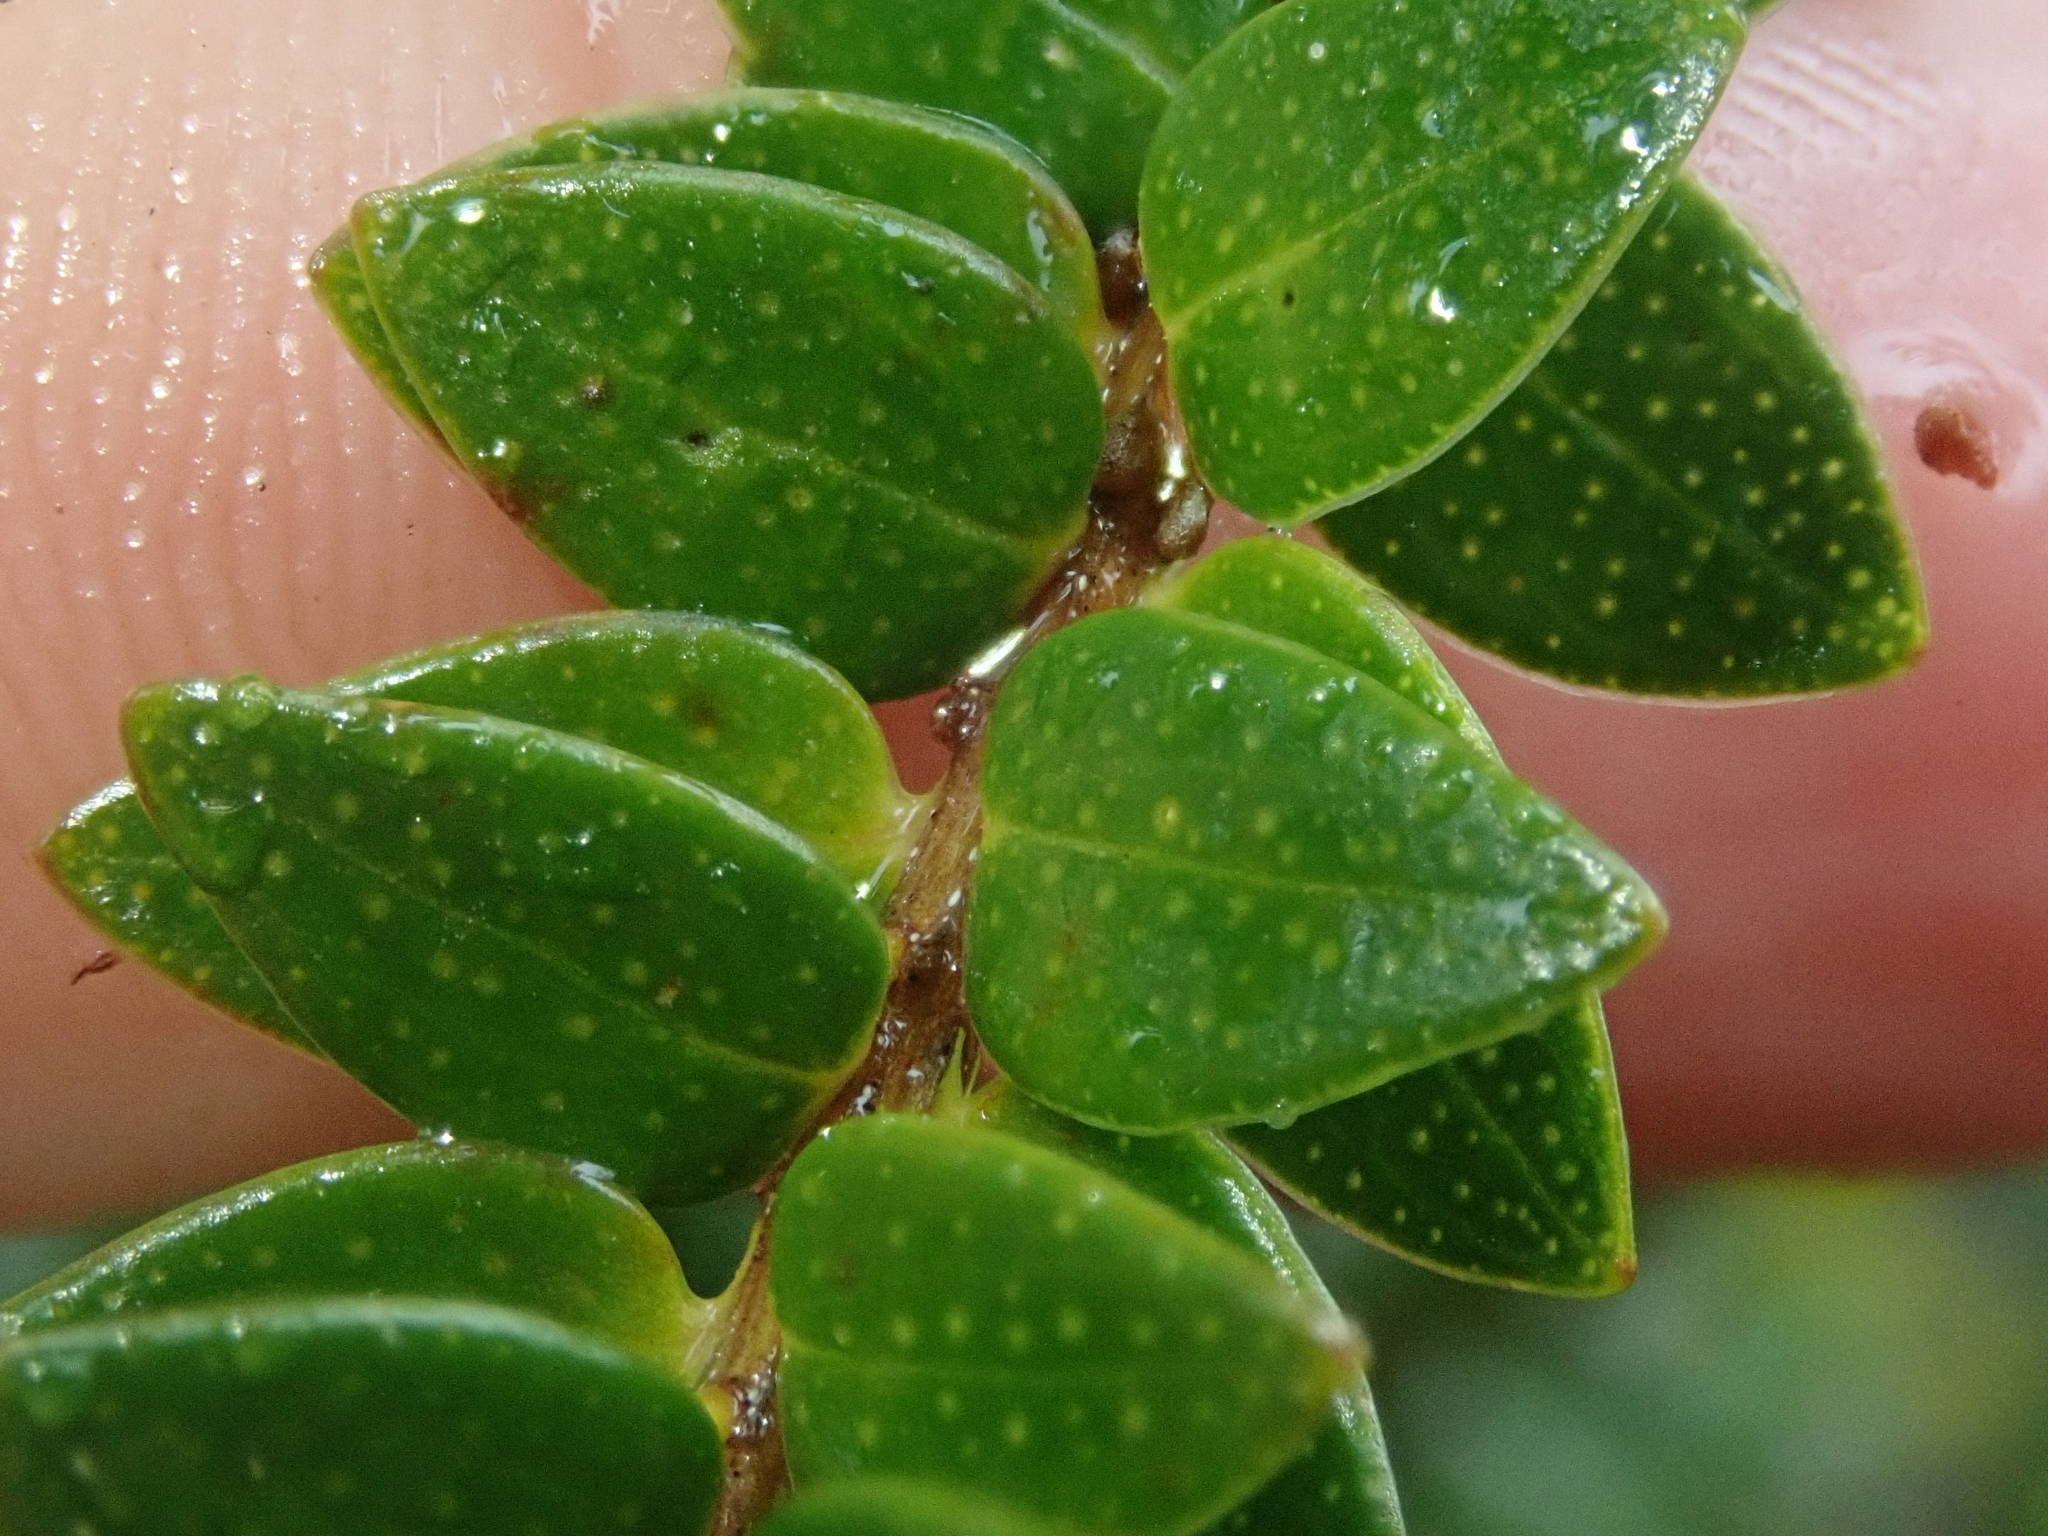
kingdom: Plantae
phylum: Tracheophyta
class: Magnoliopsida
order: Myrtales
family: Myrtaceae
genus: Tepualia
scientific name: Tepualia stipularis
